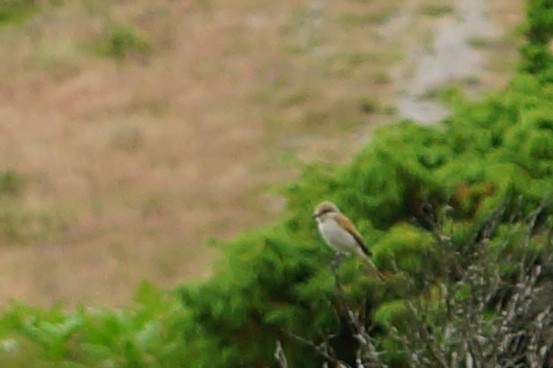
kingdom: Animalia
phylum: Chordata
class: Aves
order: Passeriformes
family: Laniidae
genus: Lanius
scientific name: Lanius collurio
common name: Red-backed shrike
